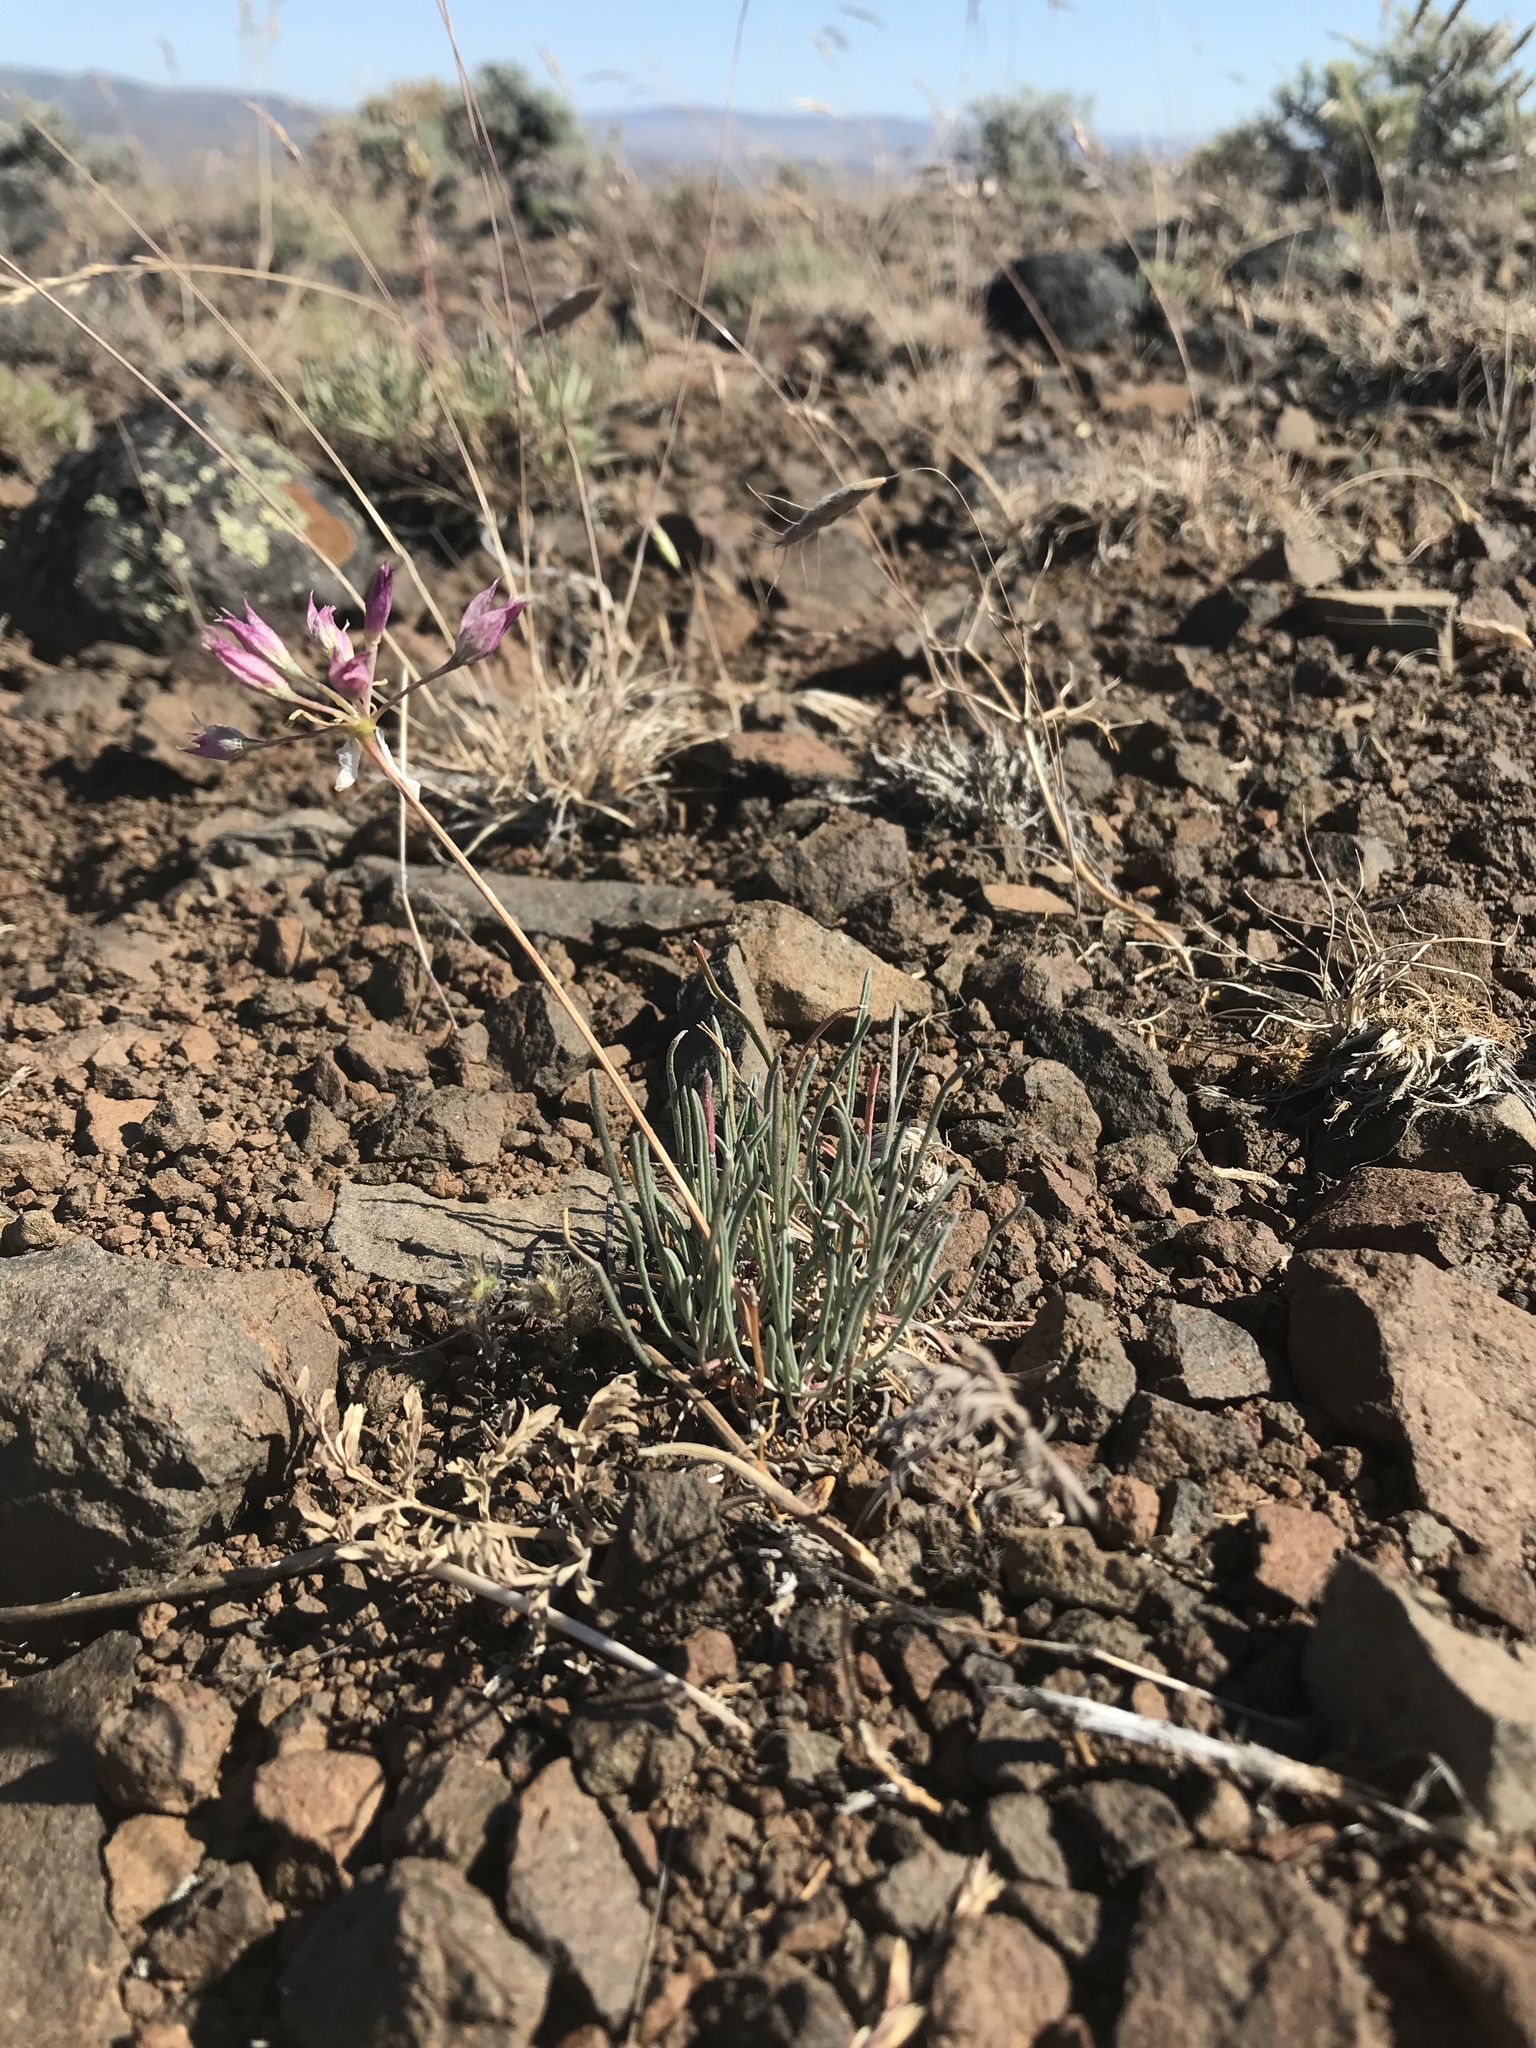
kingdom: Plantae
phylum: Tracheophyta
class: Liliopsida
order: Asparagales
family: Amaryllidaceae
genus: Allium
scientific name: Allium acuminatum
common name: Hooker's onion
